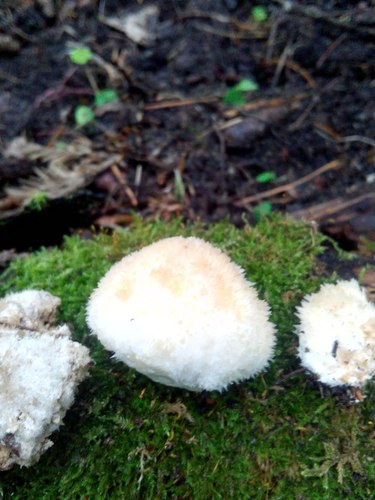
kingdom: Fungi
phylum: Basidiomycota
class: Agaricomycetes
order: Polyporales
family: Dacryobolaceae
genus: Postia
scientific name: Postia ptychogaster
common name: Powderpuff bracket
